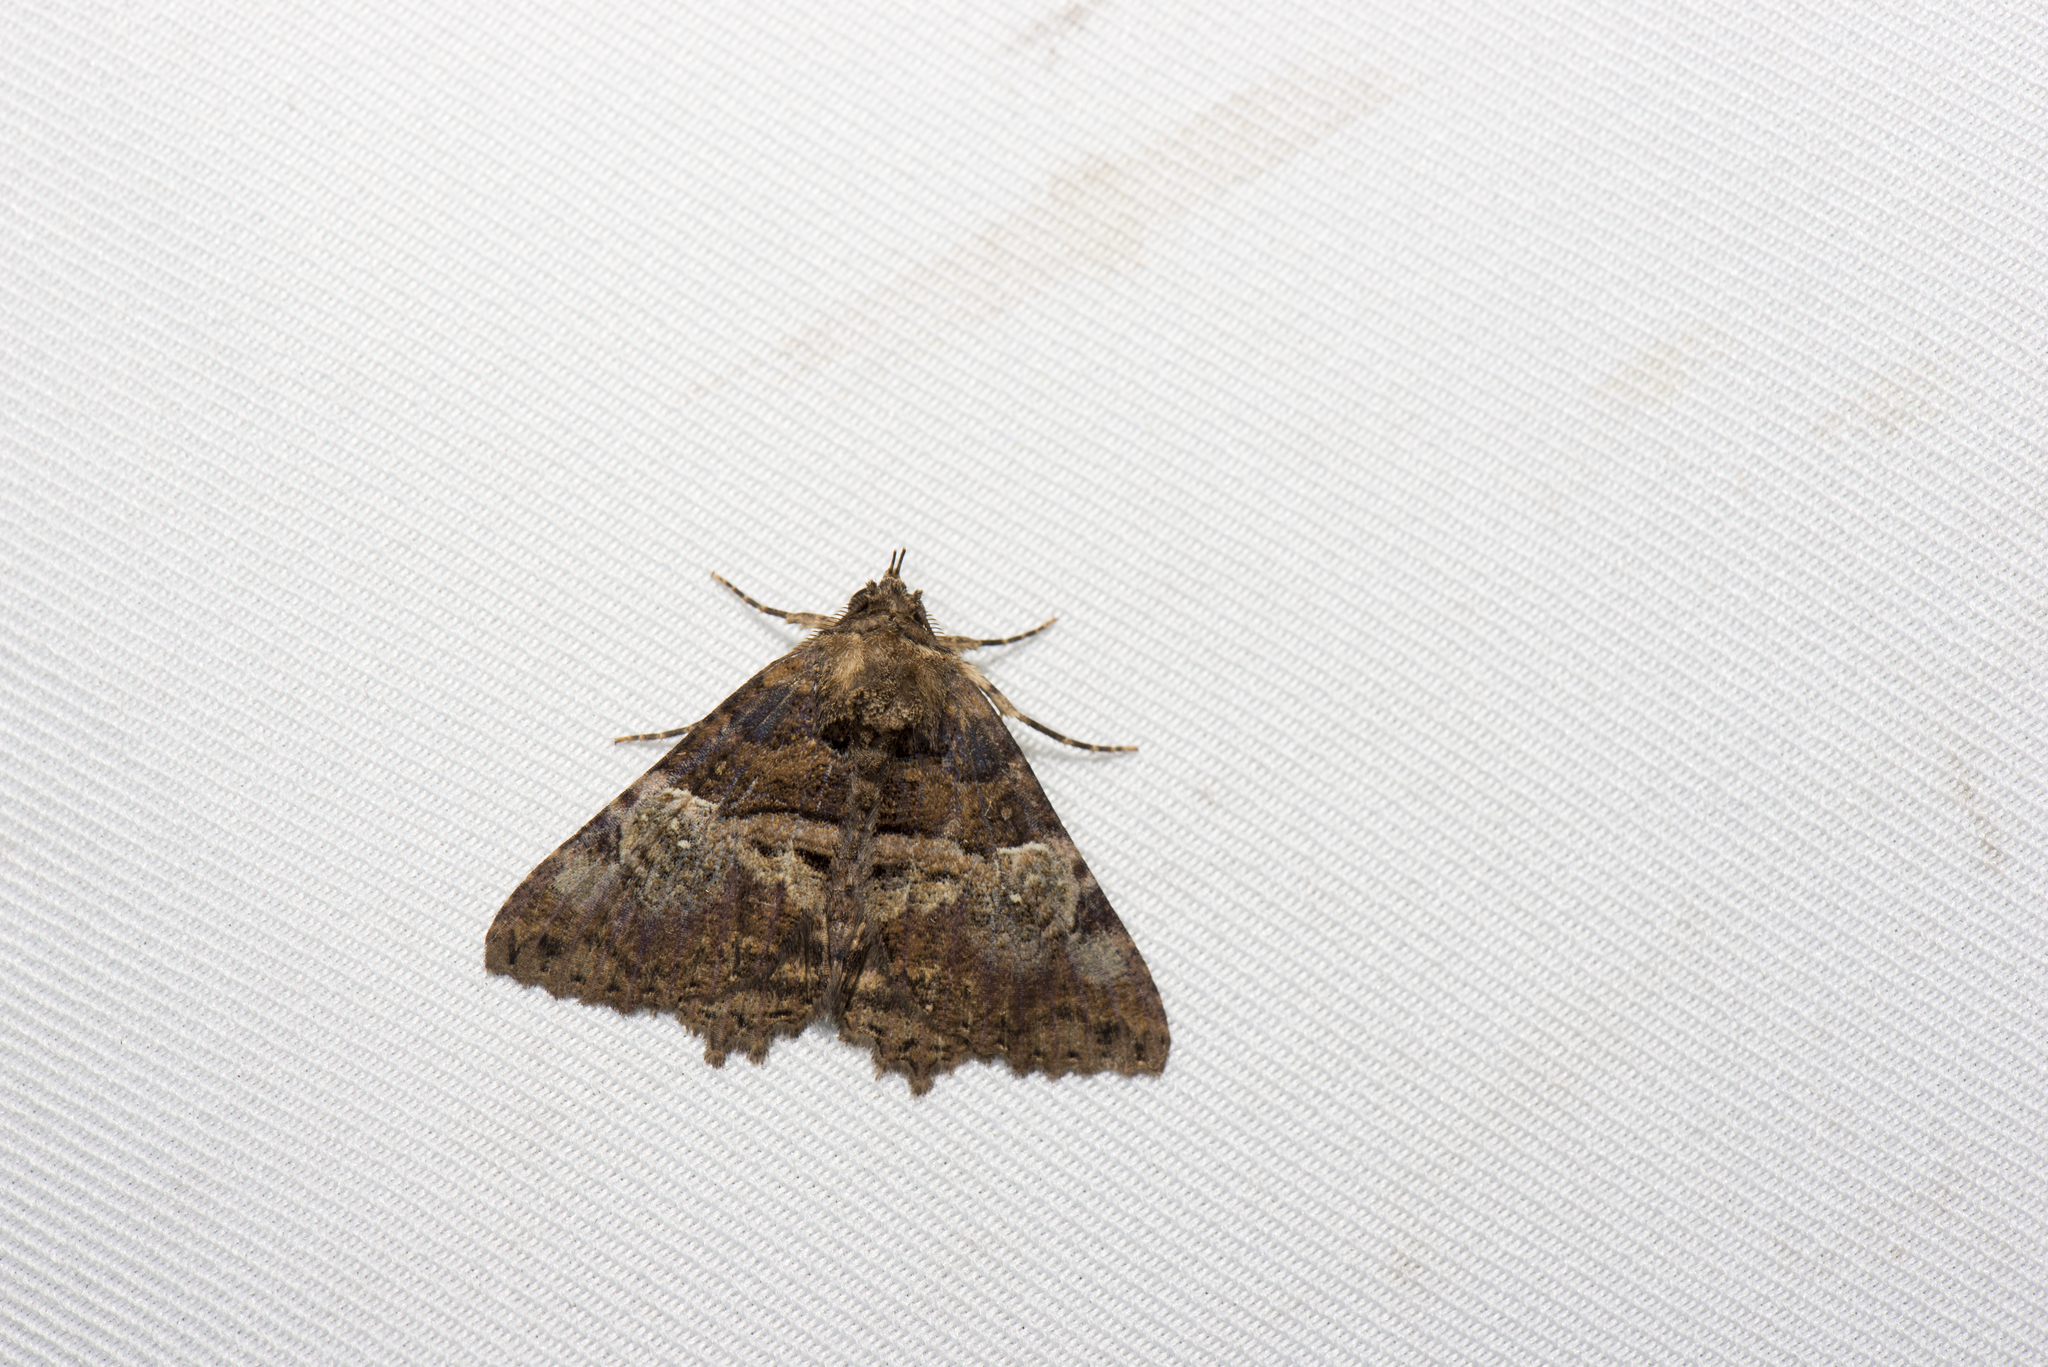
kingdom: Animalia
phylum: Arthropoda
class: Insecta
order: Lepidoptera
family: Erebidae
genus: Daddala
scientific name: Daddala lucilla
